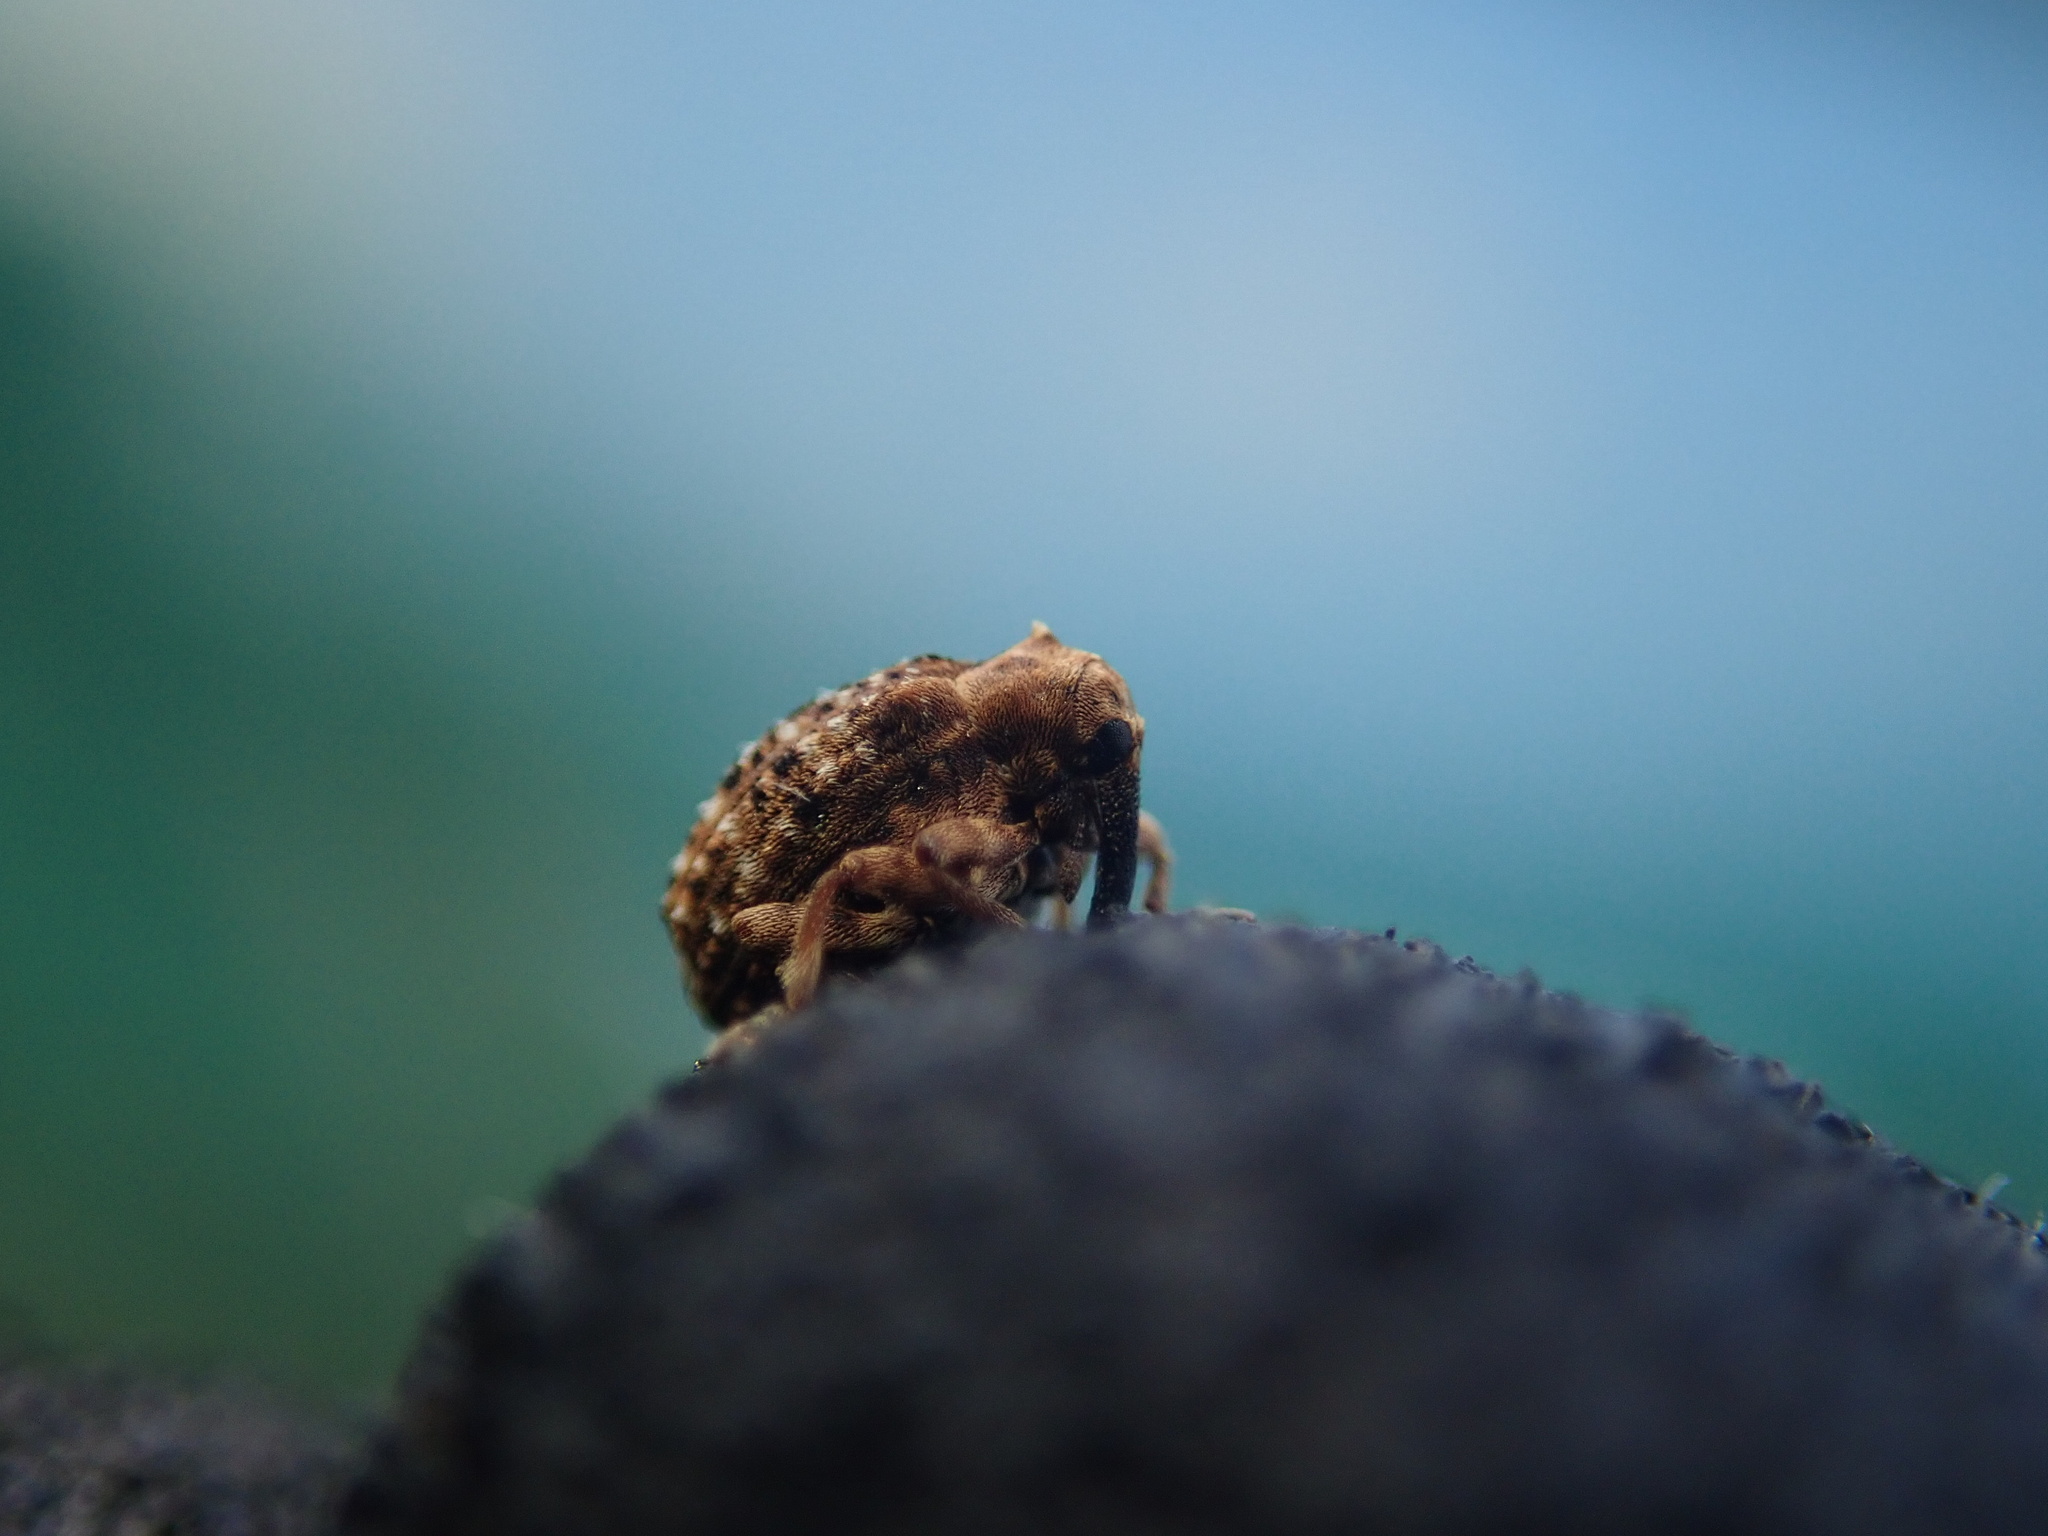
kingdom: Animalia
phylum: Arthropoda
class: Insecta
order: Coleoptera
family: Curculionidae
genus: Cleopus
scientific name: Cleopus japonicus
